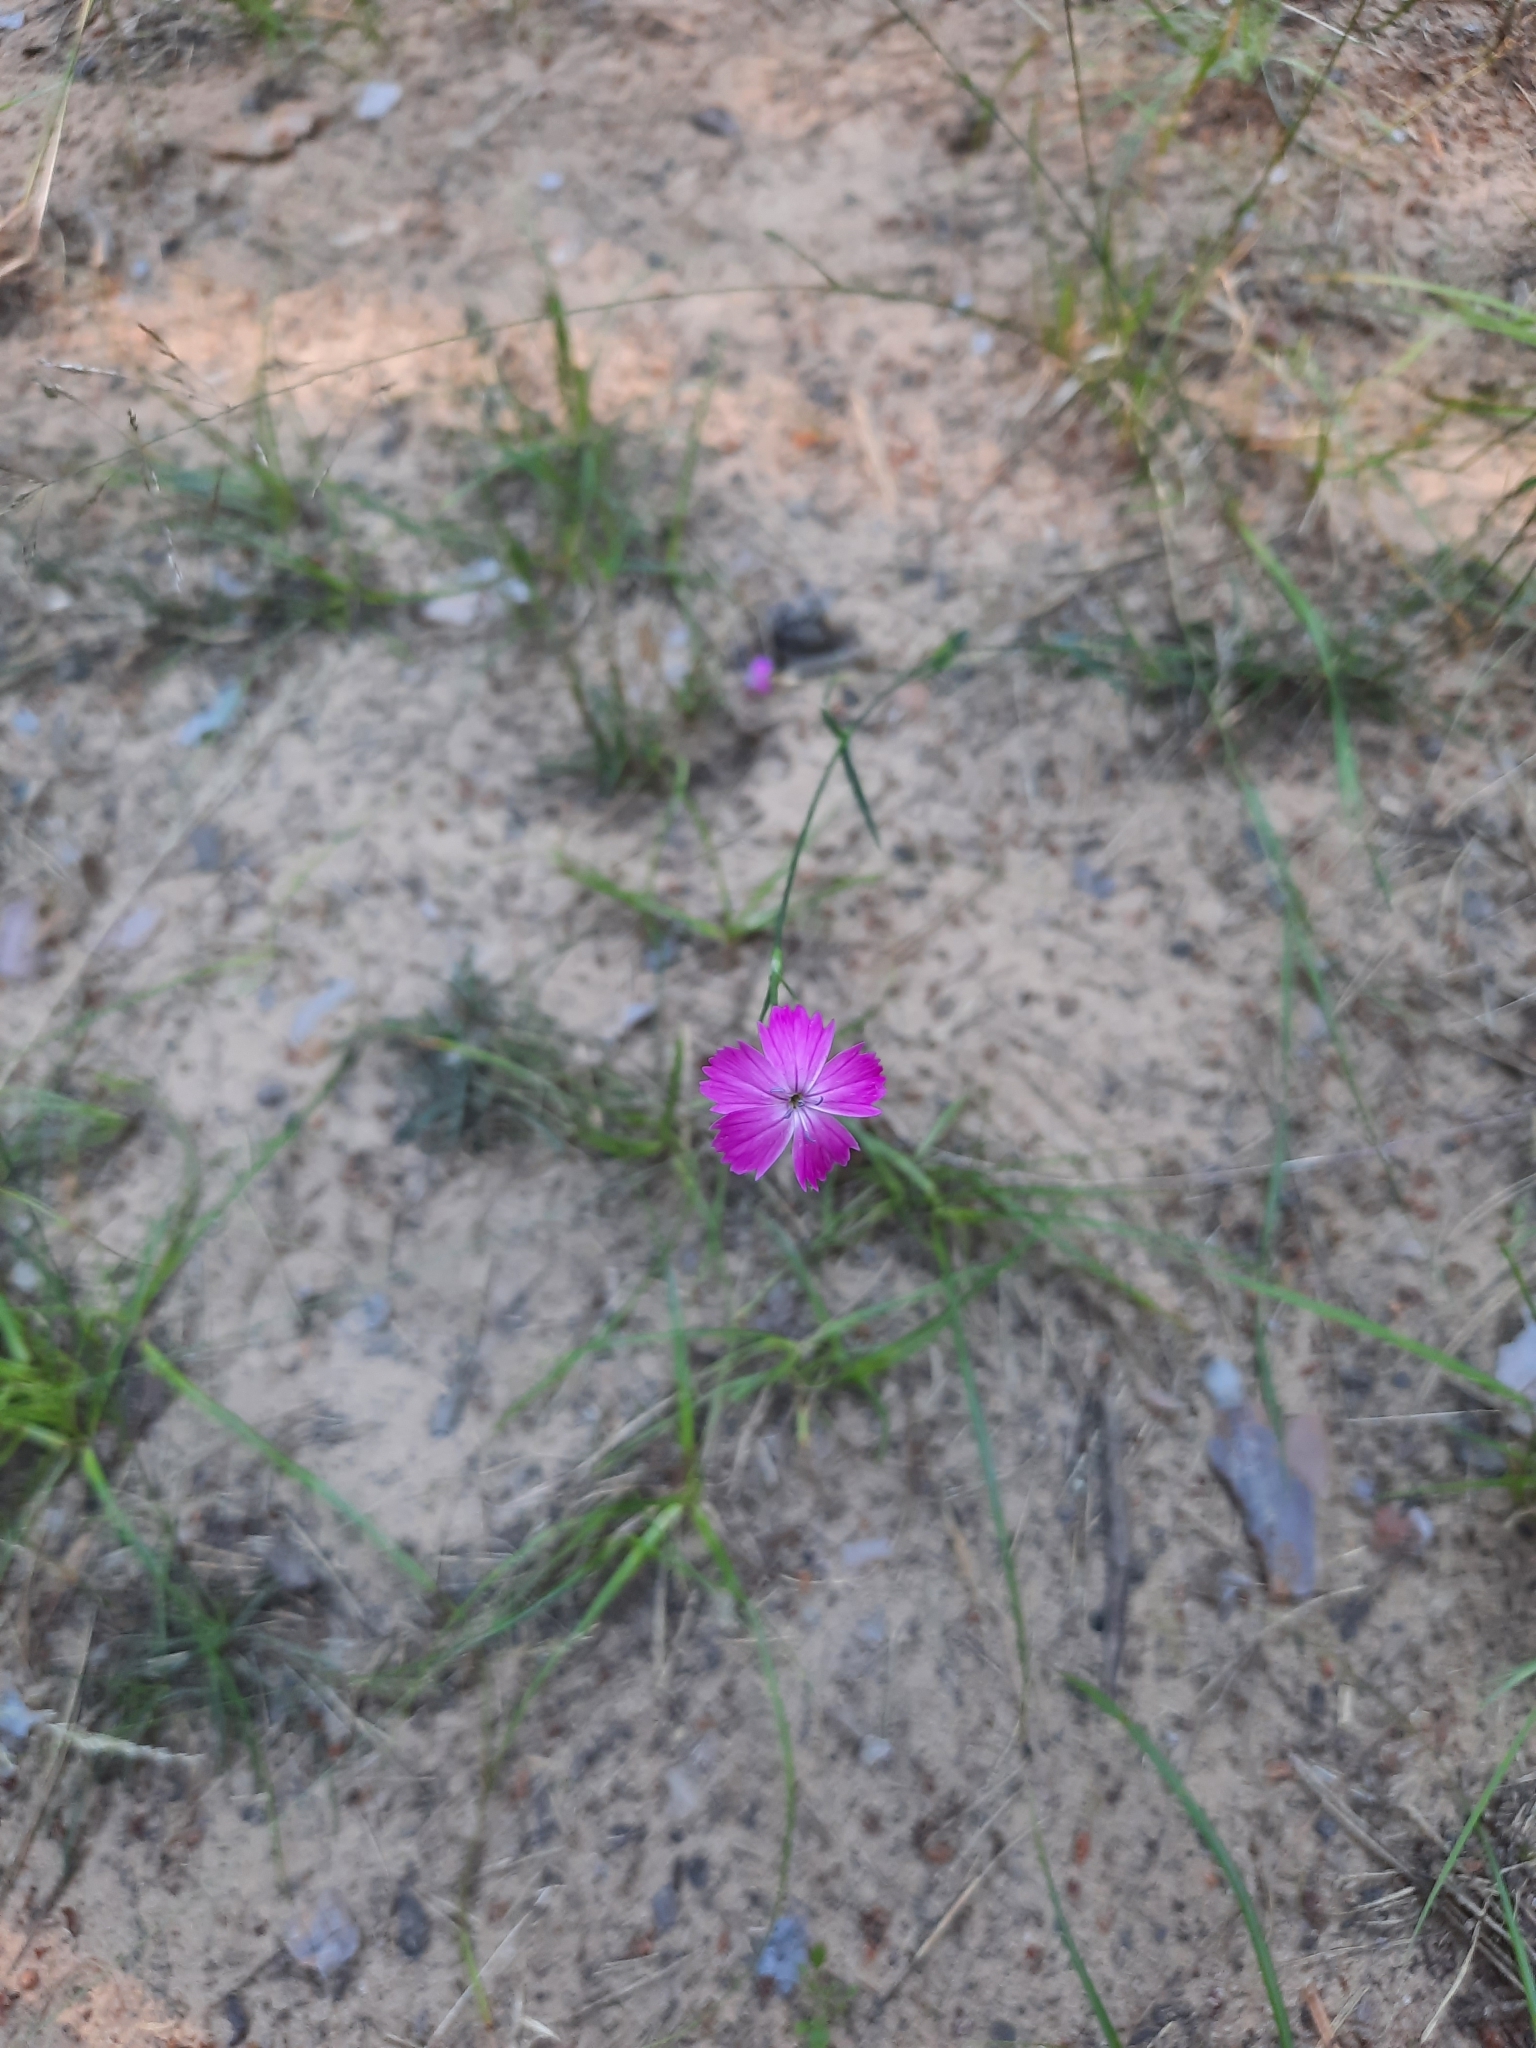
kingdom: Plantae
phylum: Tracheophyta
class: Magnoliopsida
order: Caryophyllales
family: Caryophyllaceae
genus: Dianthus
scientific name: Dianthus borbasii
